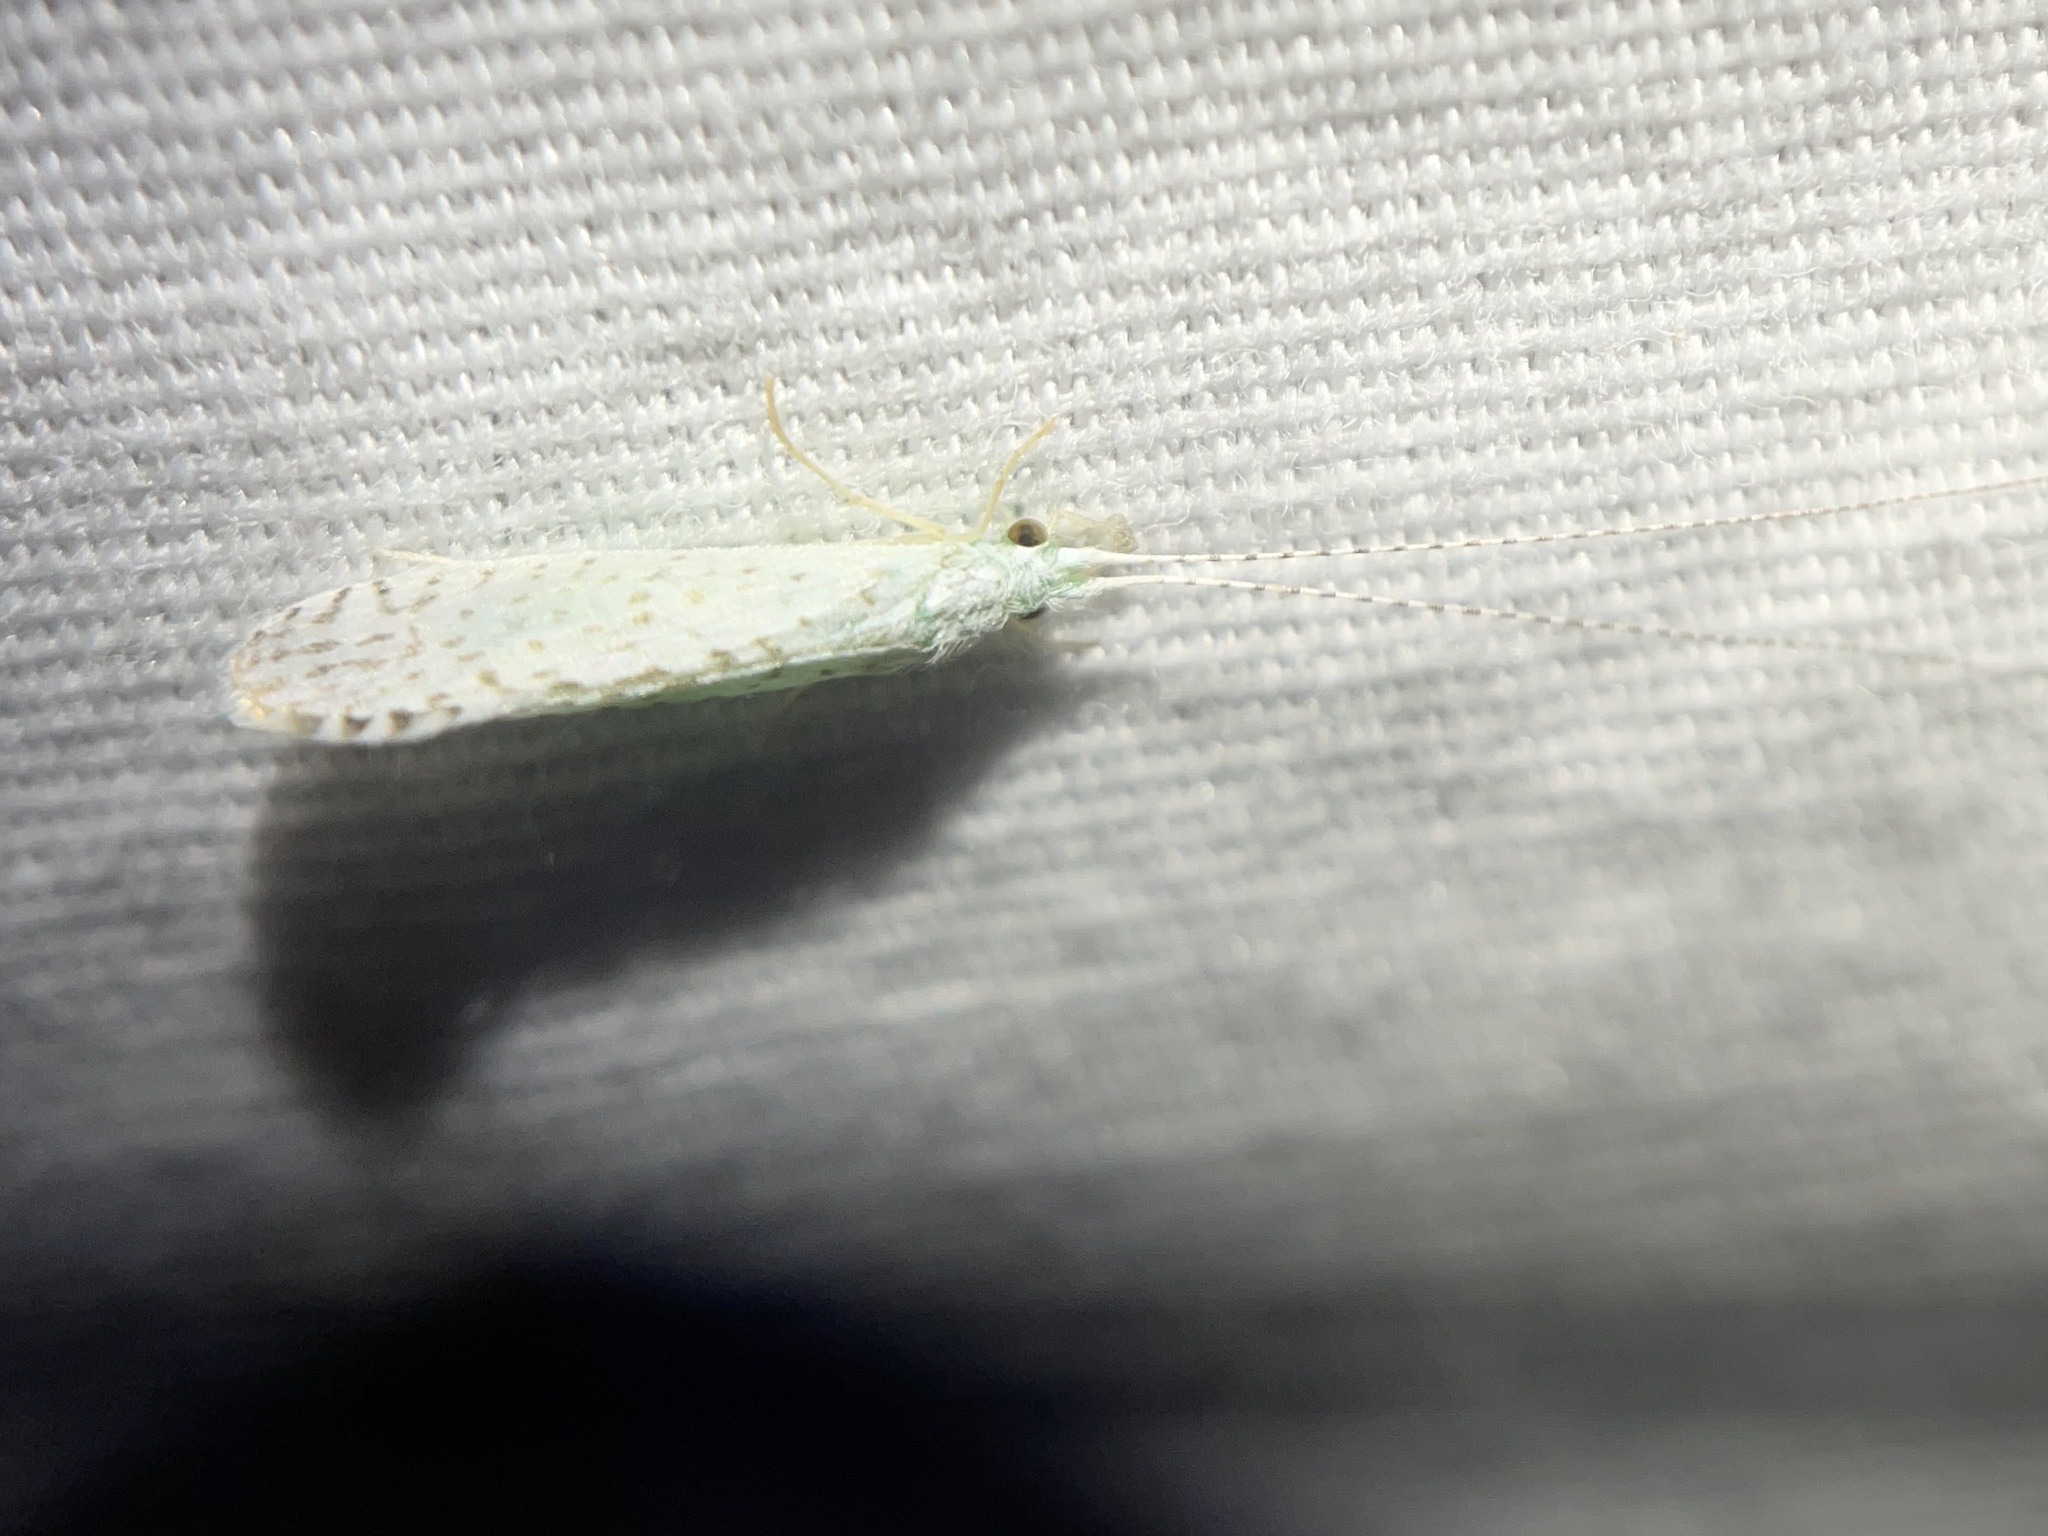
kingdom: Animalia
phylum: Arthropoda
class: Insecta
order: Trichoptera
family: Leptoceridae
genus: Nectopsyche
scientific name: Nectopsyche candida
